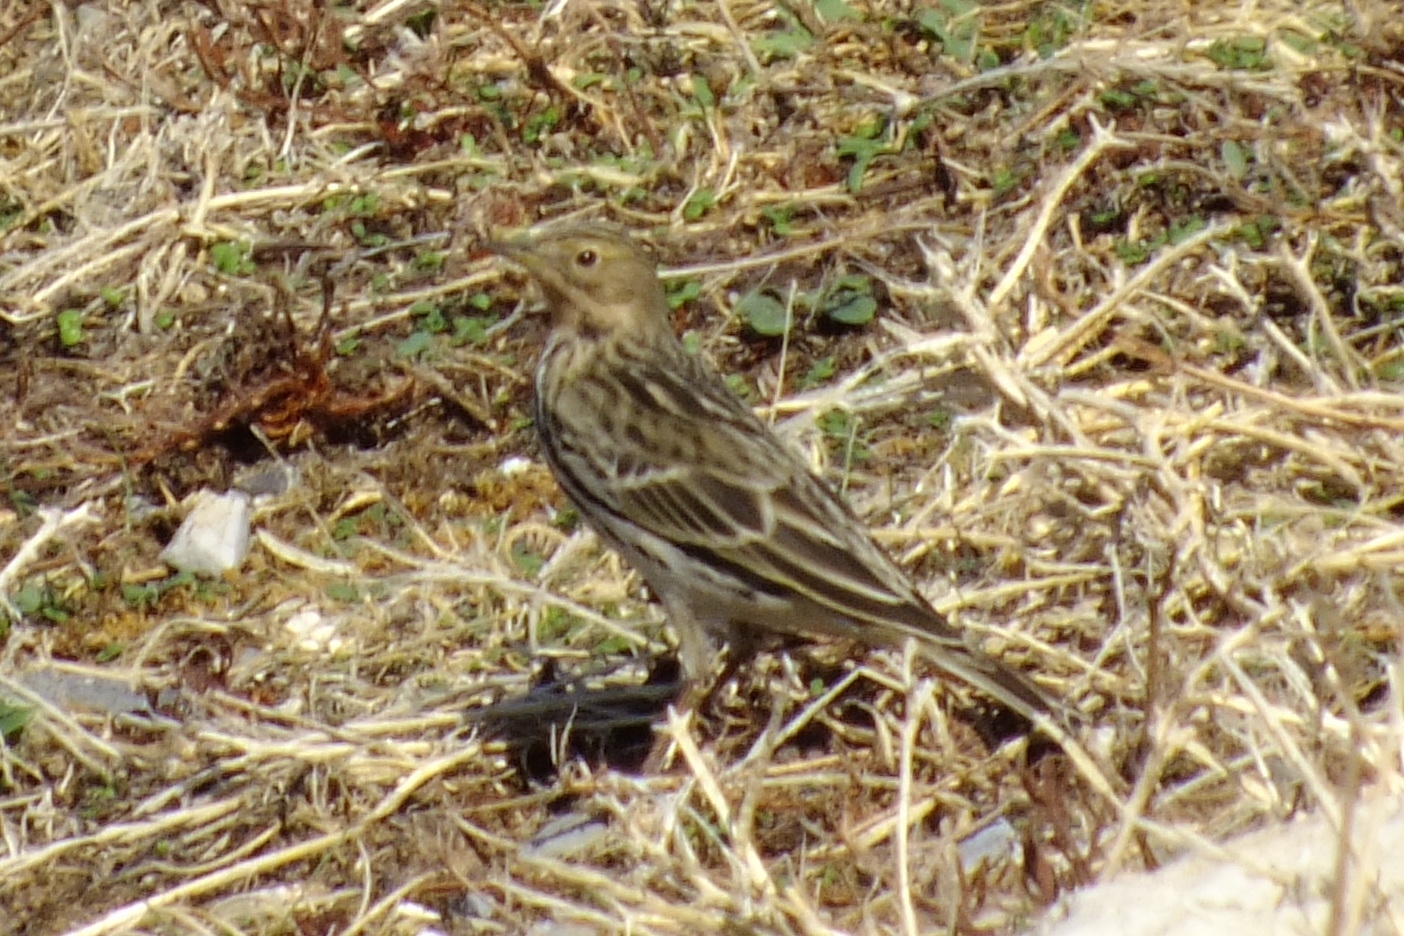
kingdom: Animalia
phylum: Chordata
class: Aves
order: Passeriformes
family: Motacillidae
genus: Anthus
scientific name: Anthus cervinus
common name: Red-throated pipit
